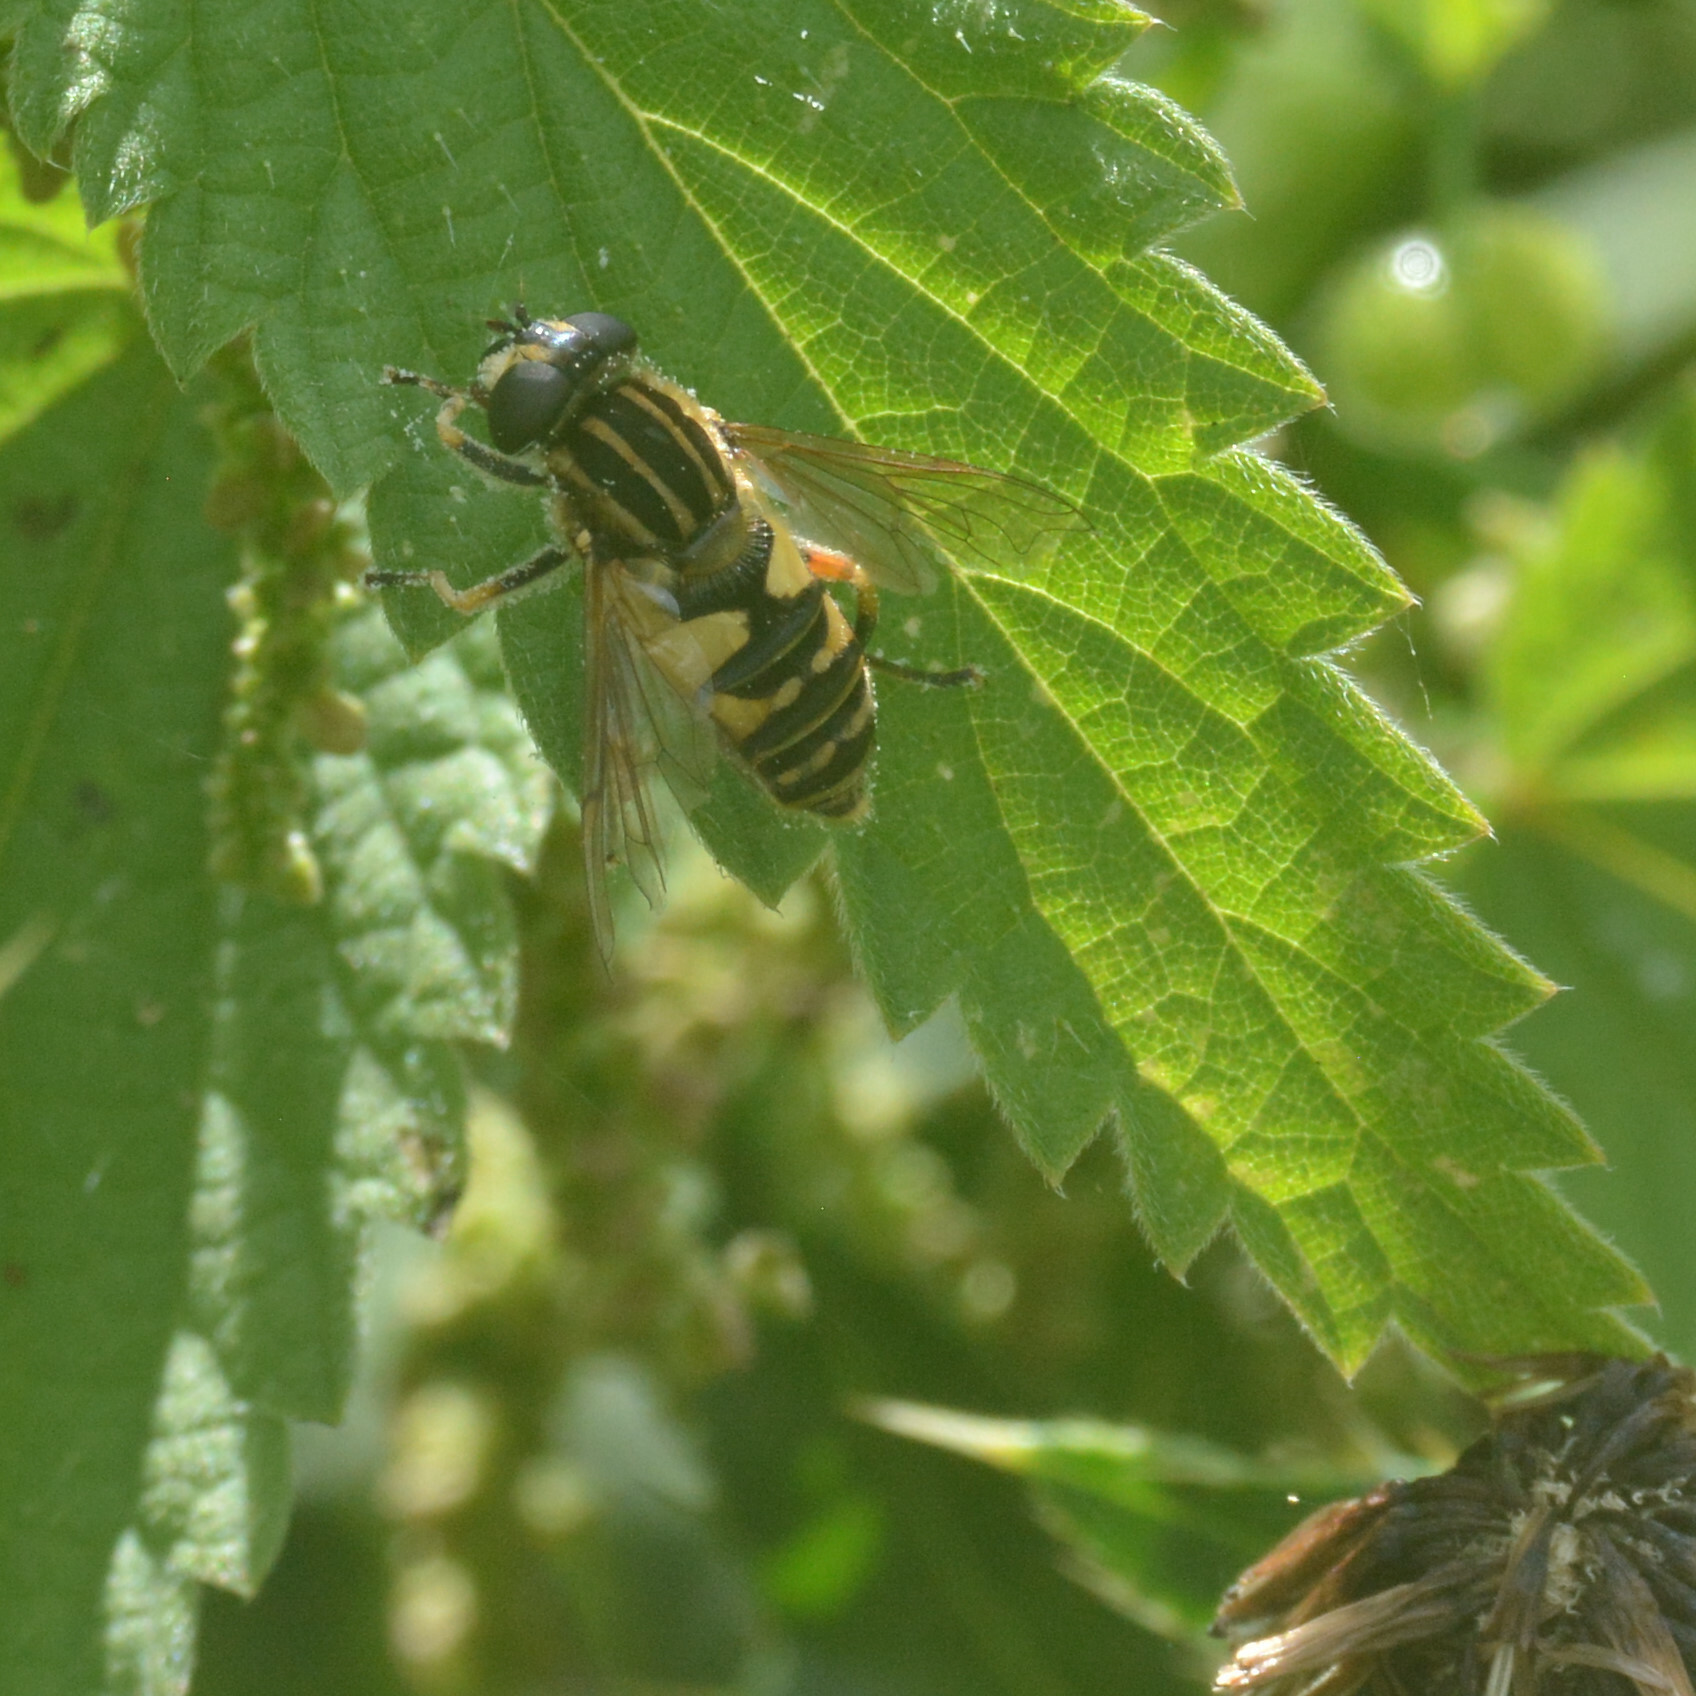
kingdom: Animalia
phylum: Arthropoda
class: Insecta
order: Diptera
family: Syrphidae
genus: Helophilus
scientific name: Helophilus pendulus
